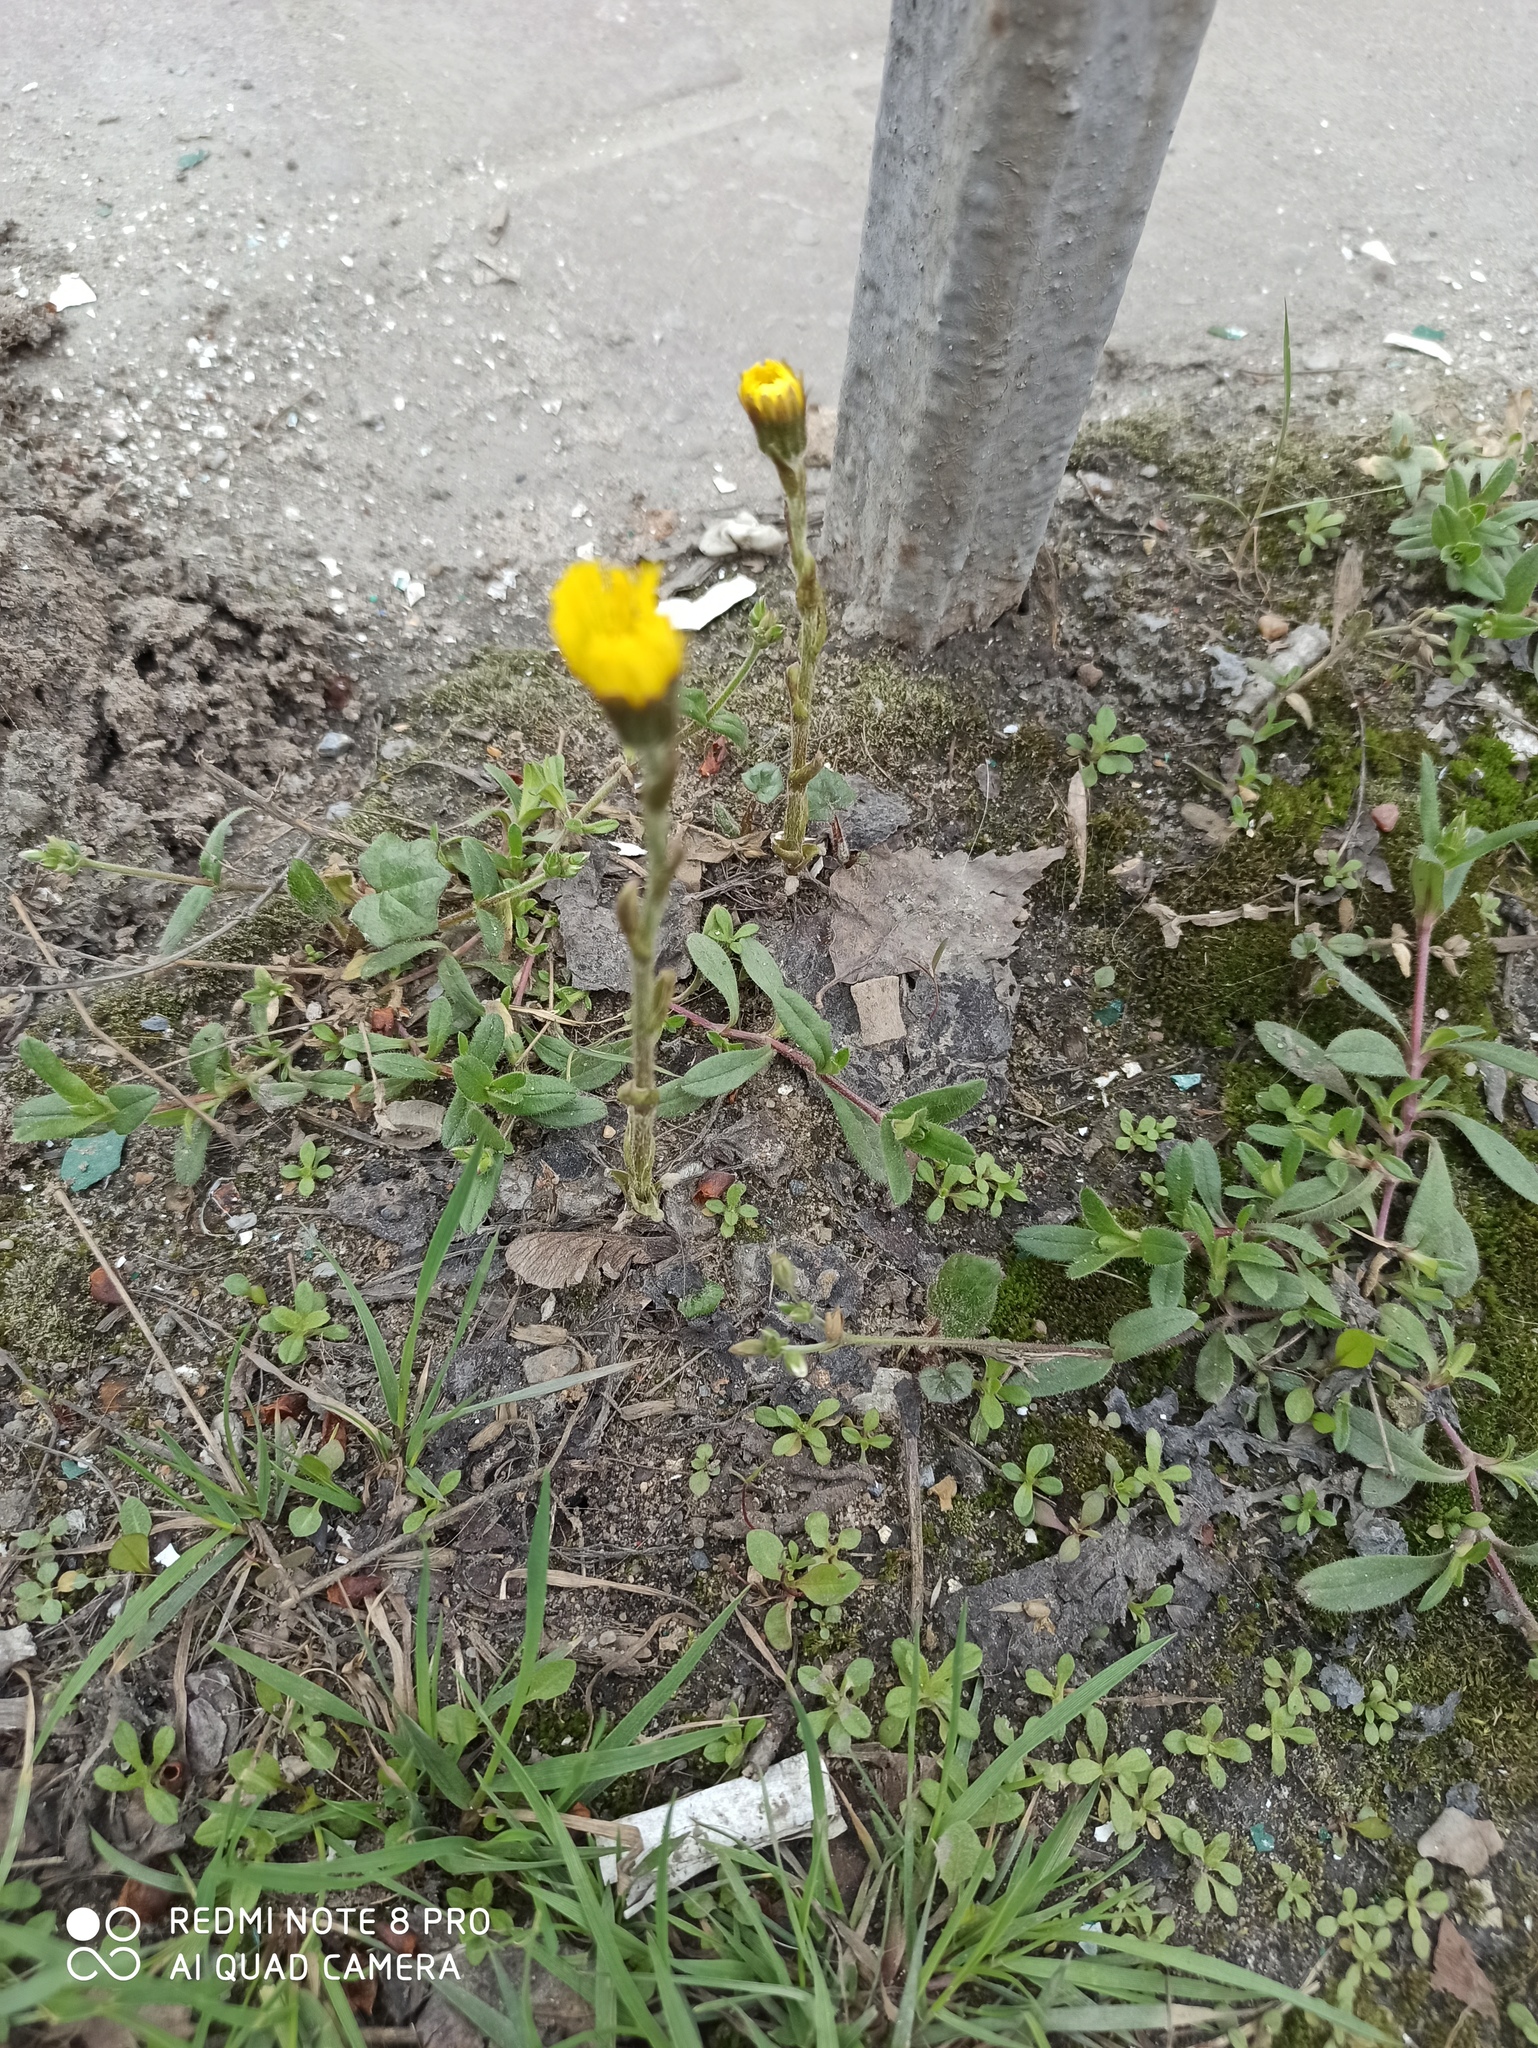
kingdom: Plantae
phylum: Tracheophyta
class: Magnoliopsida
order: Asterales
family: Asteraceae
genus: Tussilago
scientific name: Tussilago farfara
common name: Coltsfoot
